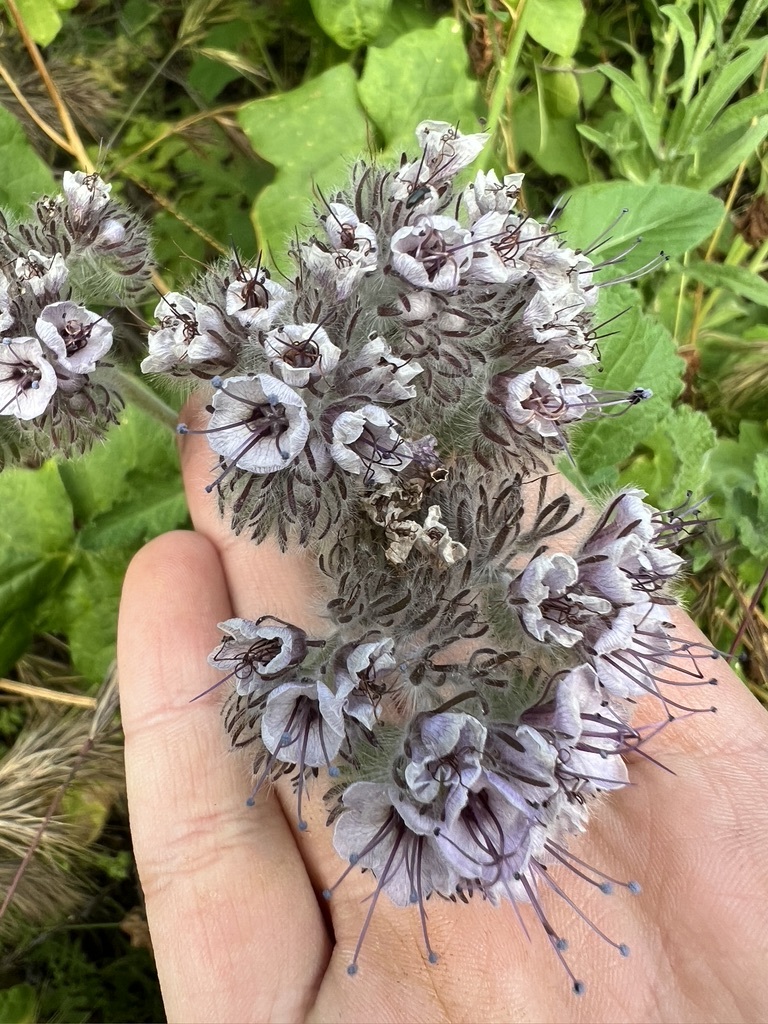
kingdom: Plantae
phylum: Tracheophyta
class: Magnoliopsida
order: Boraginales
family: Hydrophyllaceae
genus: Phacelia
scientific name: Phacelia hubbyi
